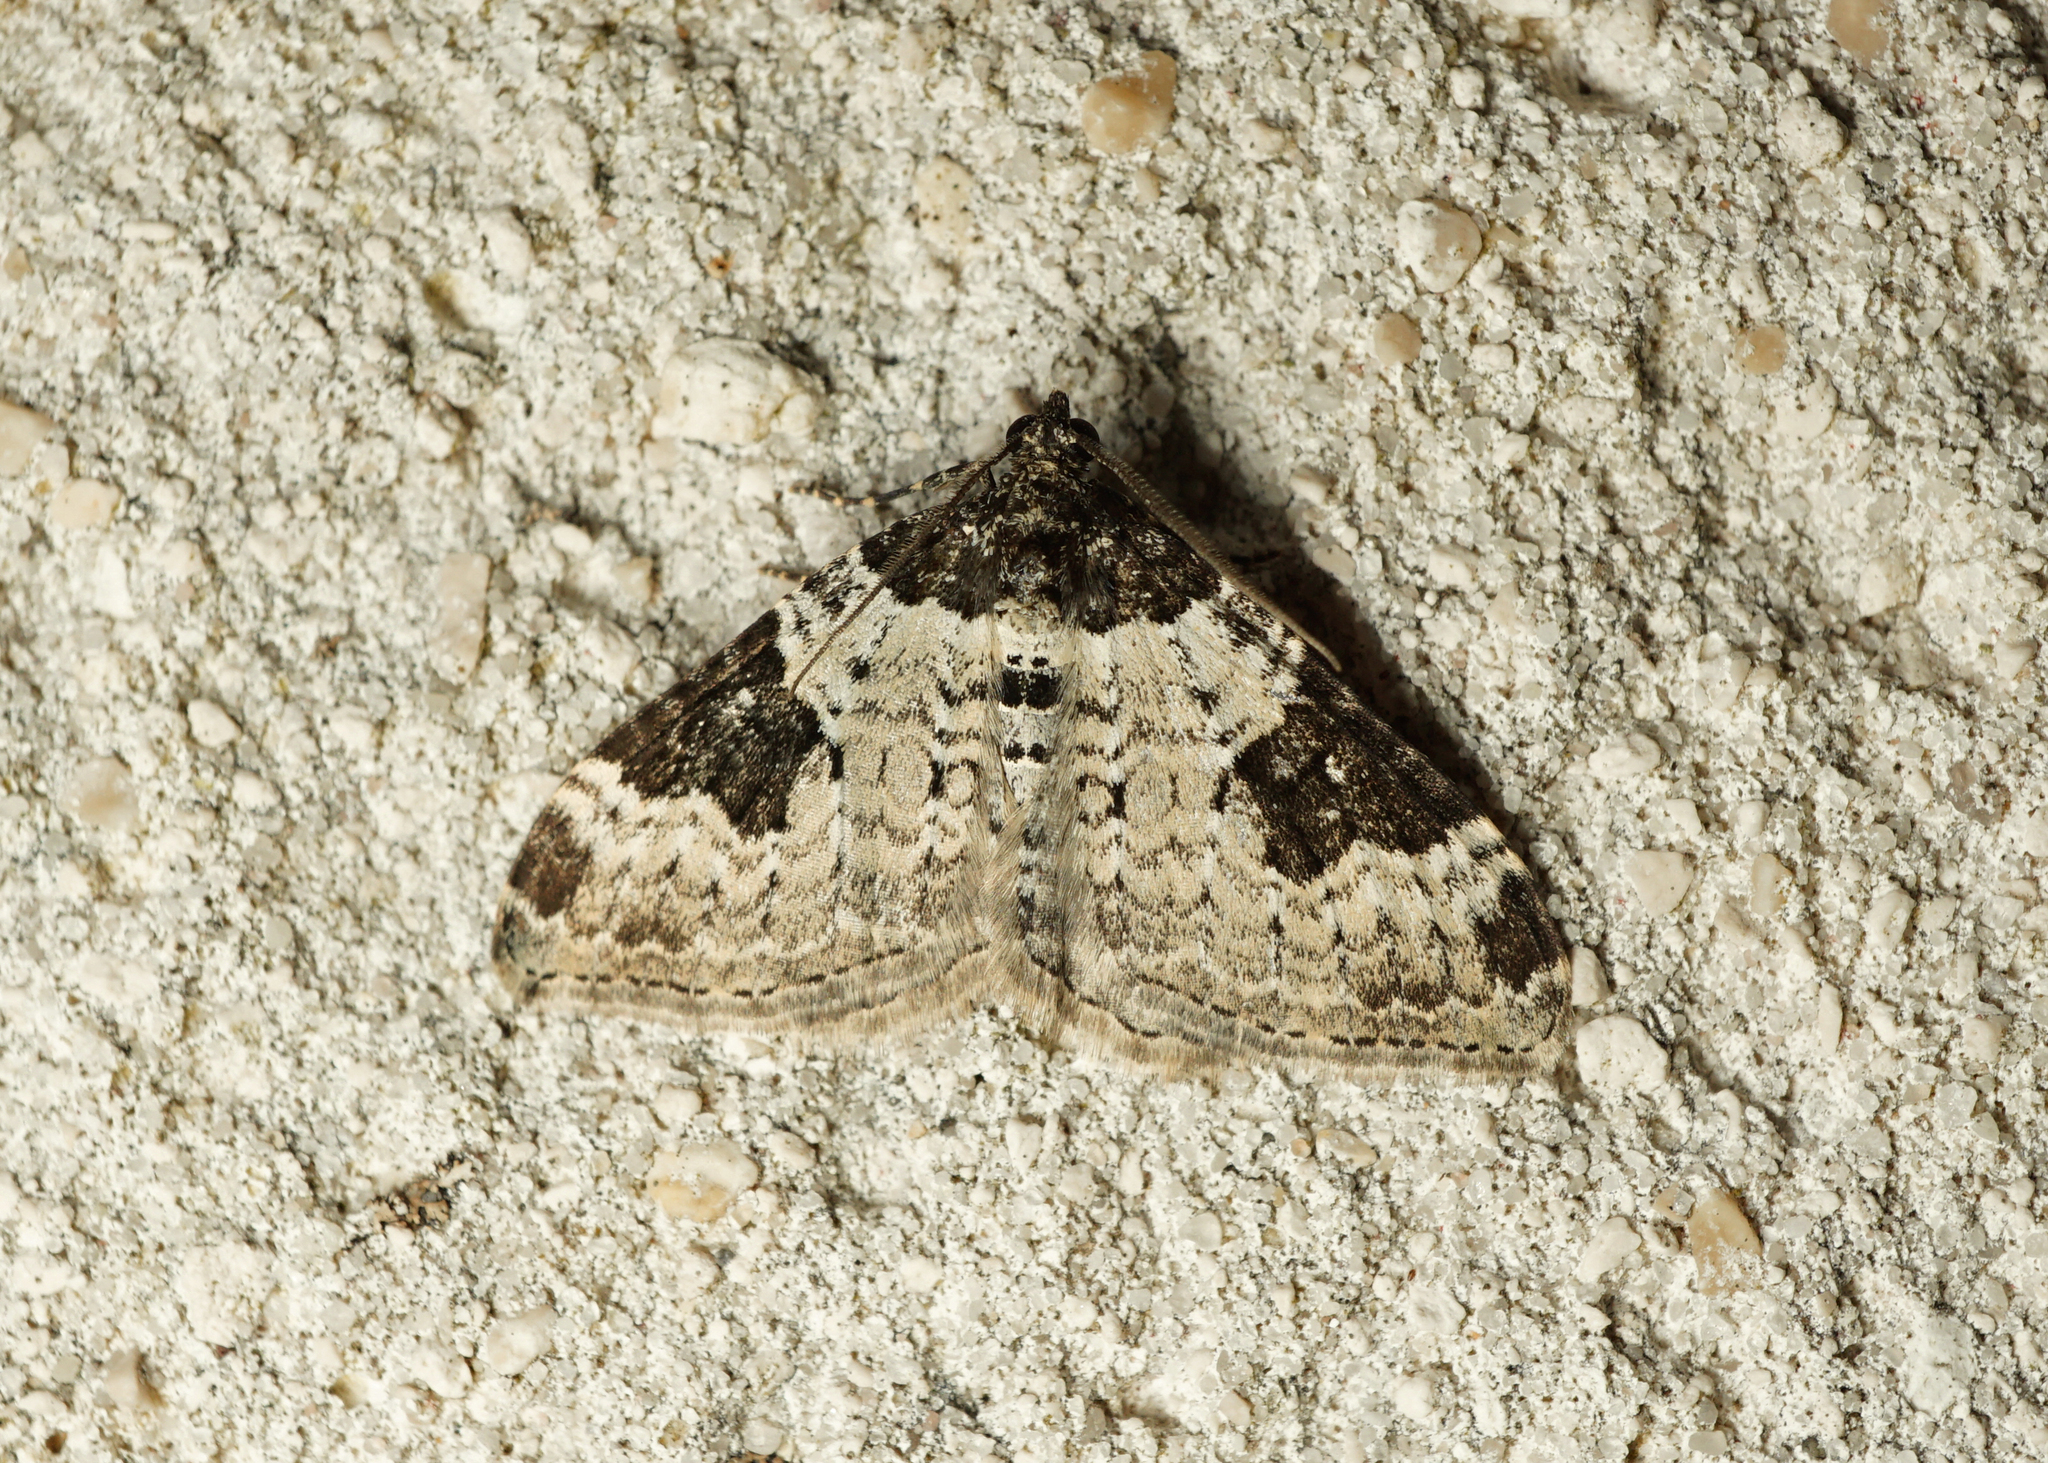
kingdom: Animalia
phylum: Arthropoda
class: Insecta
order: Lepidoptera
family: Geometridae
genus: Xanthorhoe
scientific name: Xanthorhoe fluctuata
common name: Garden carpet
